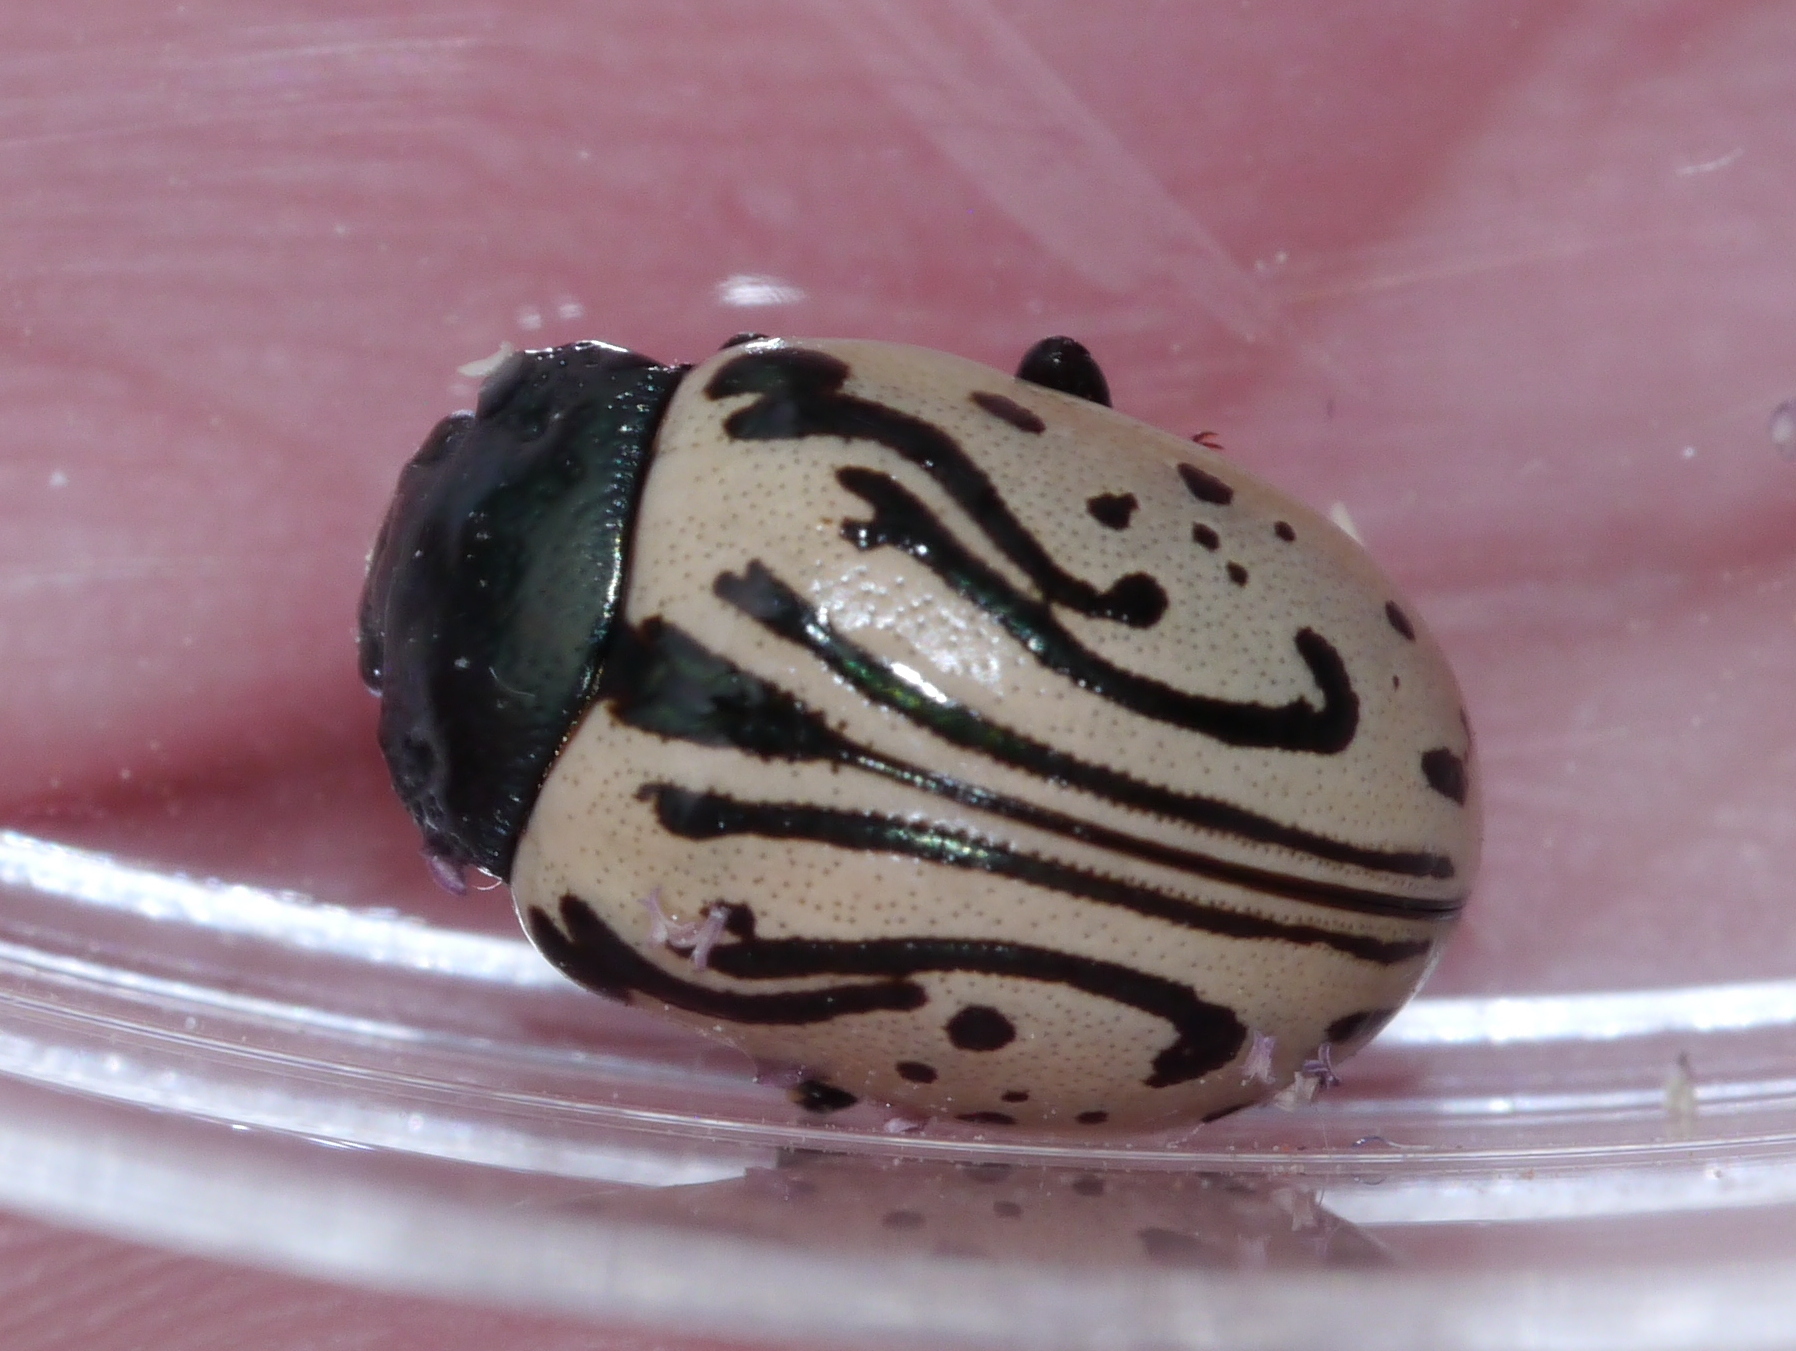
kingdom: Animalia
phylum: Arthropoda
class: Insecta
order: Coleoptera
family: Chrysomelidae
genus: Calligrapha
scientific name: Calligrapha dislocata
